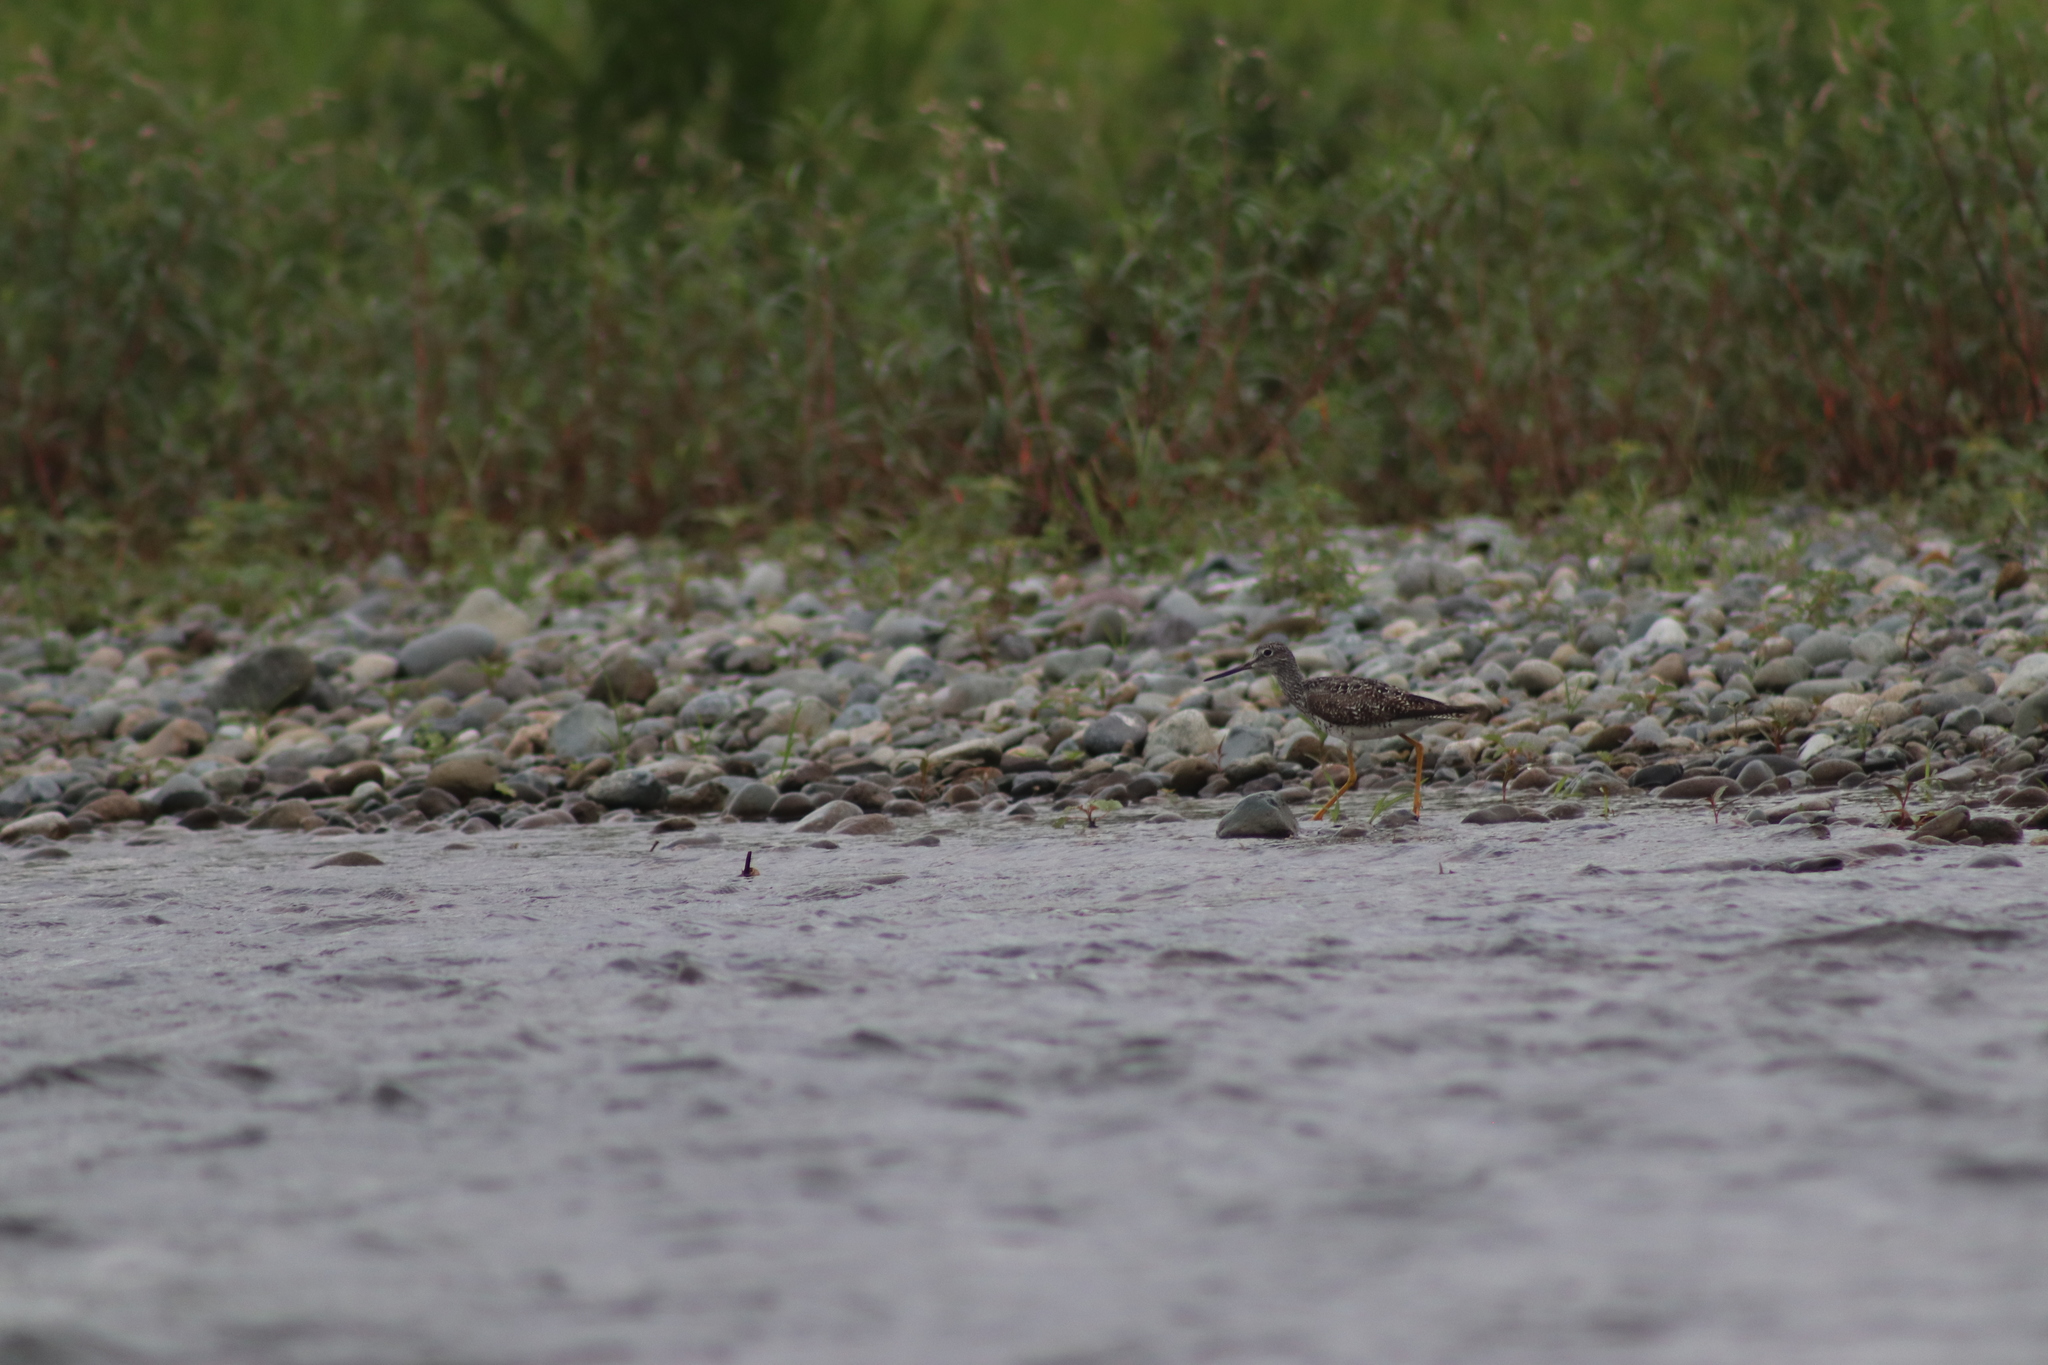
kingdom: Animalia
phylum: Chordata
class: Aves
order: Charadriiformes
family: Scolopacidae
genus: Tringa
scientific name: Tringa melanoleuca
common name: Greater yellowlegs
